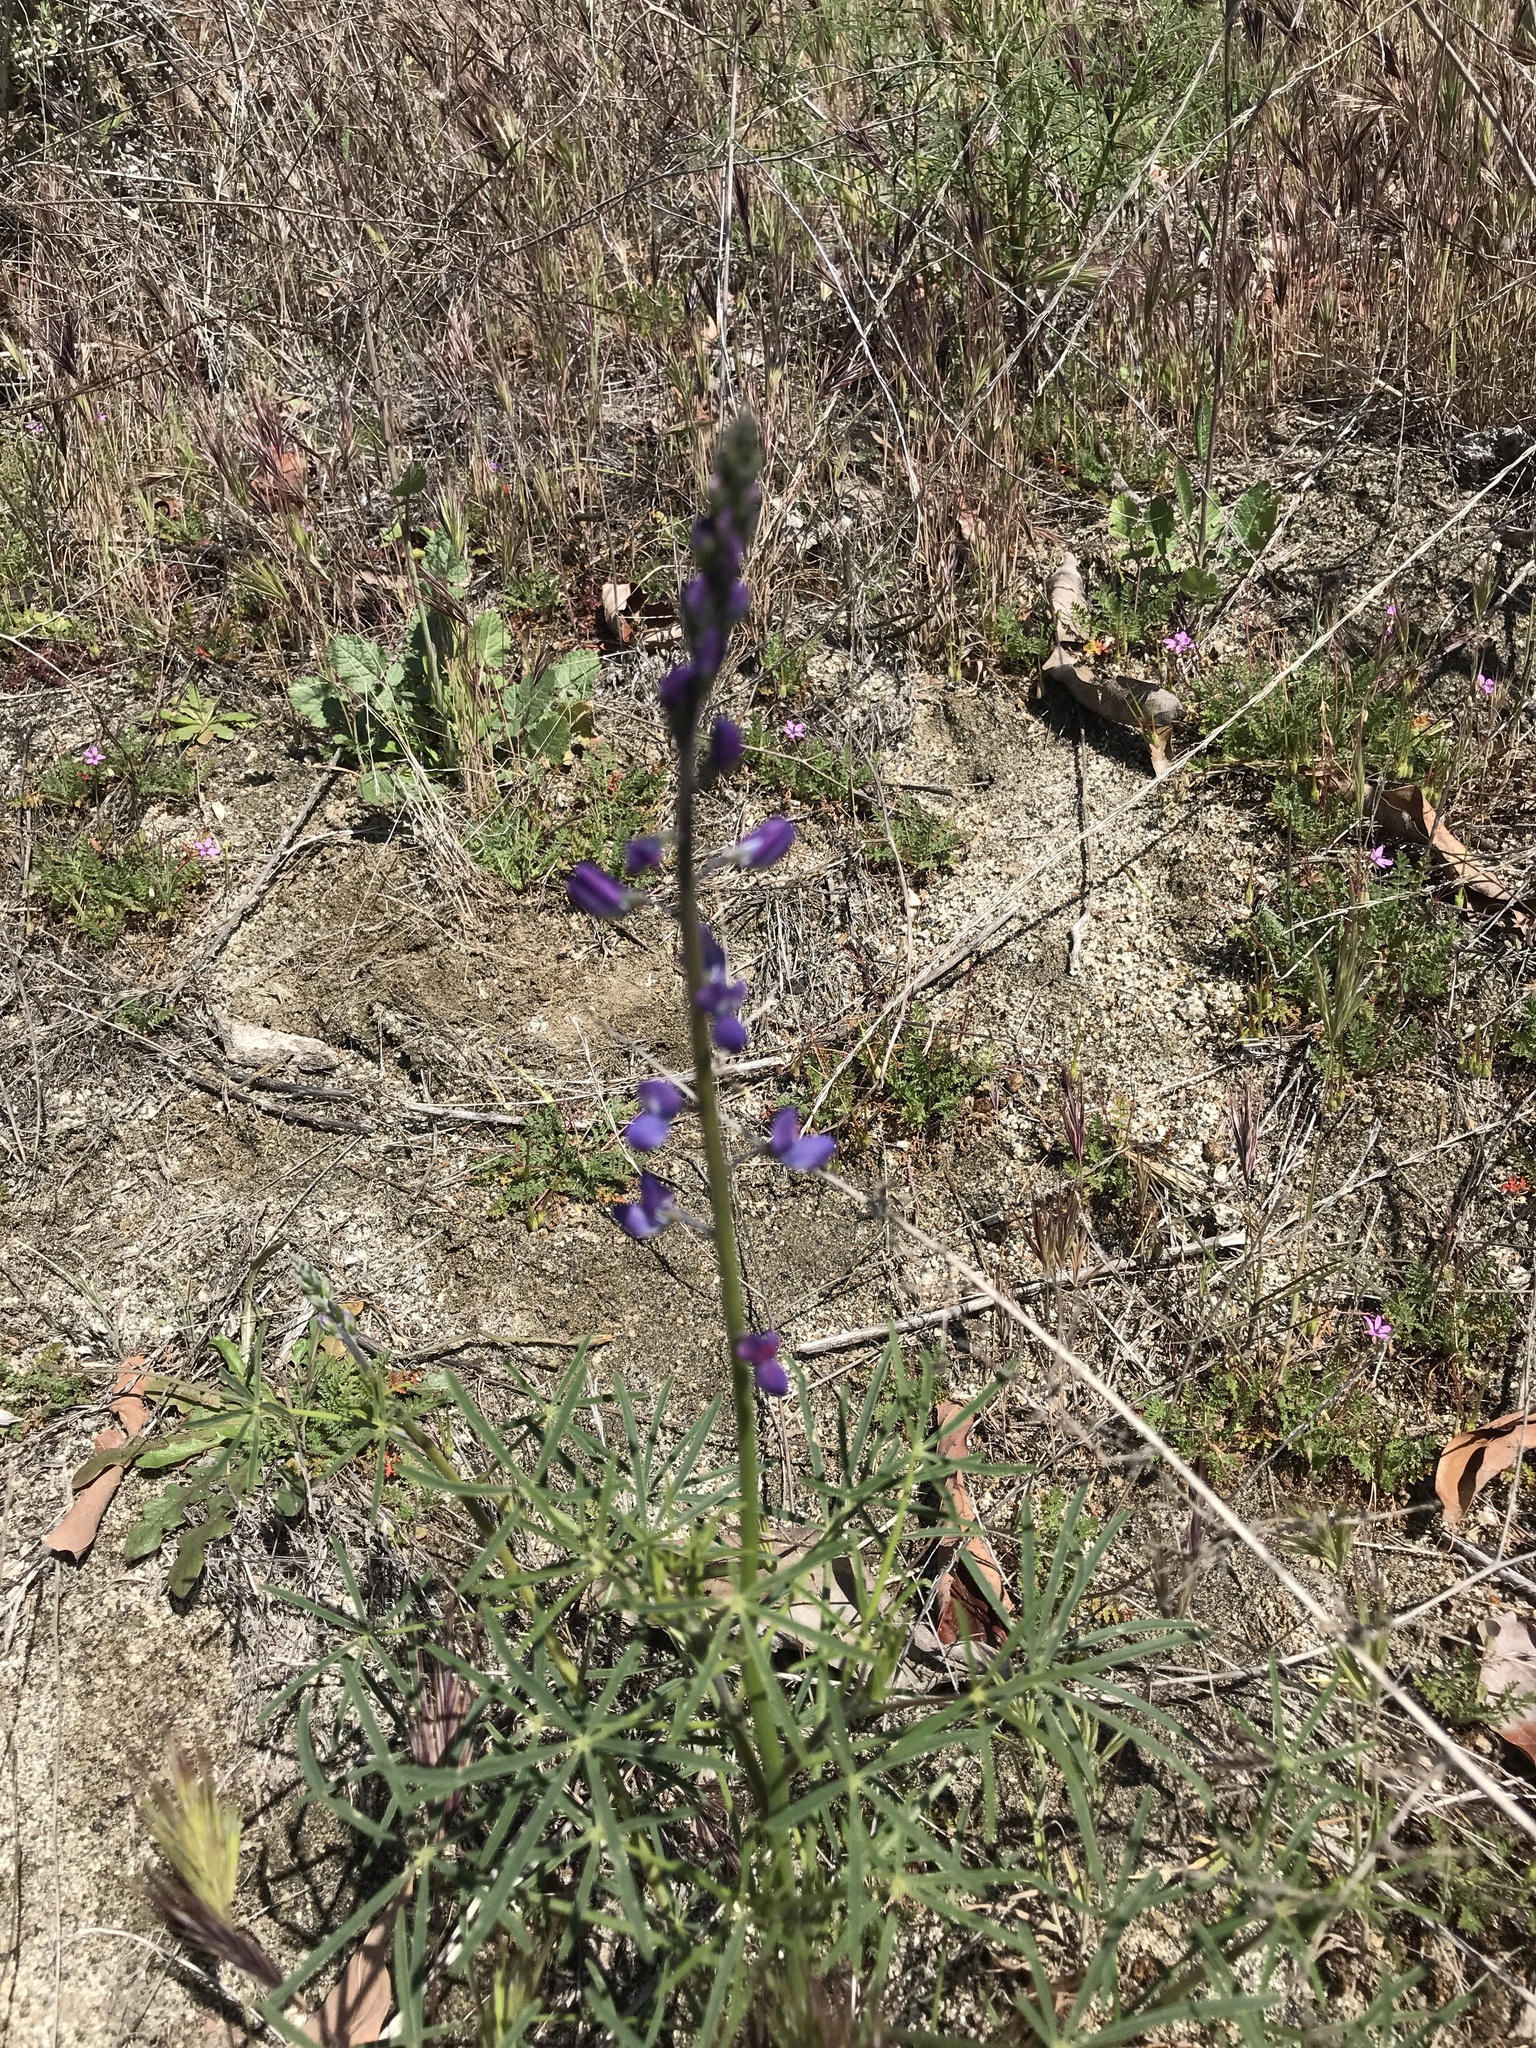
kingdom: Plantae
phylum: Tracheophyta
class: Magnoliopsida
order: Fabales
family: Fabaceae
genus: Lupinus
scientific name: Lupinus truncatus
